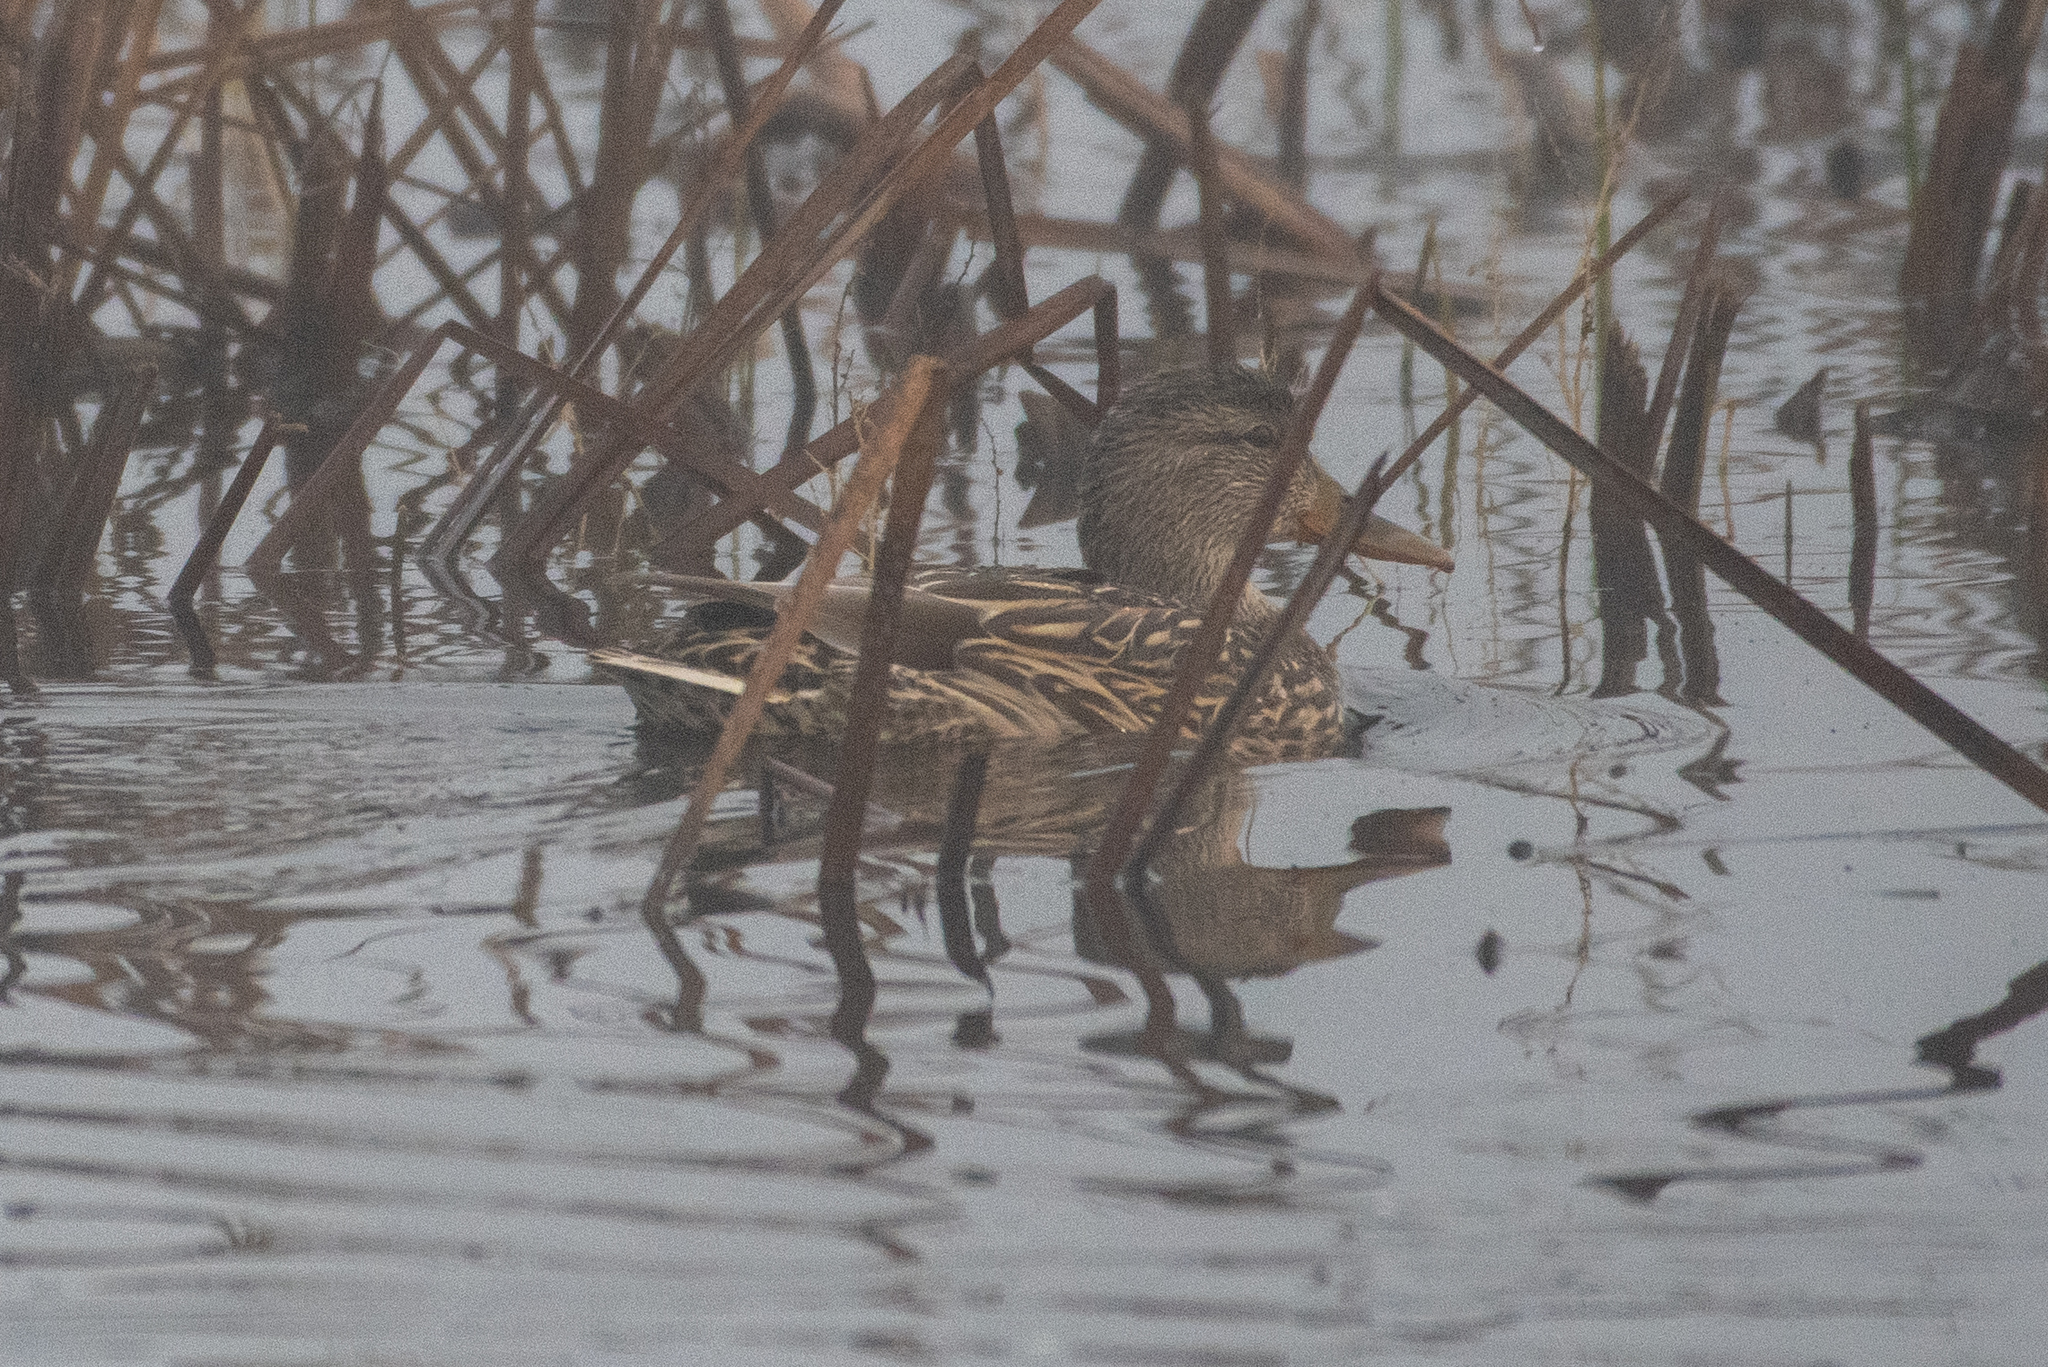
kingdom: Animalia
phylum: Chordata
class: Aves
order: Anseriformes
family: Anatidae
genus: Spatula
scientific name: Spatula clypeata
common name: Northern shoveler
